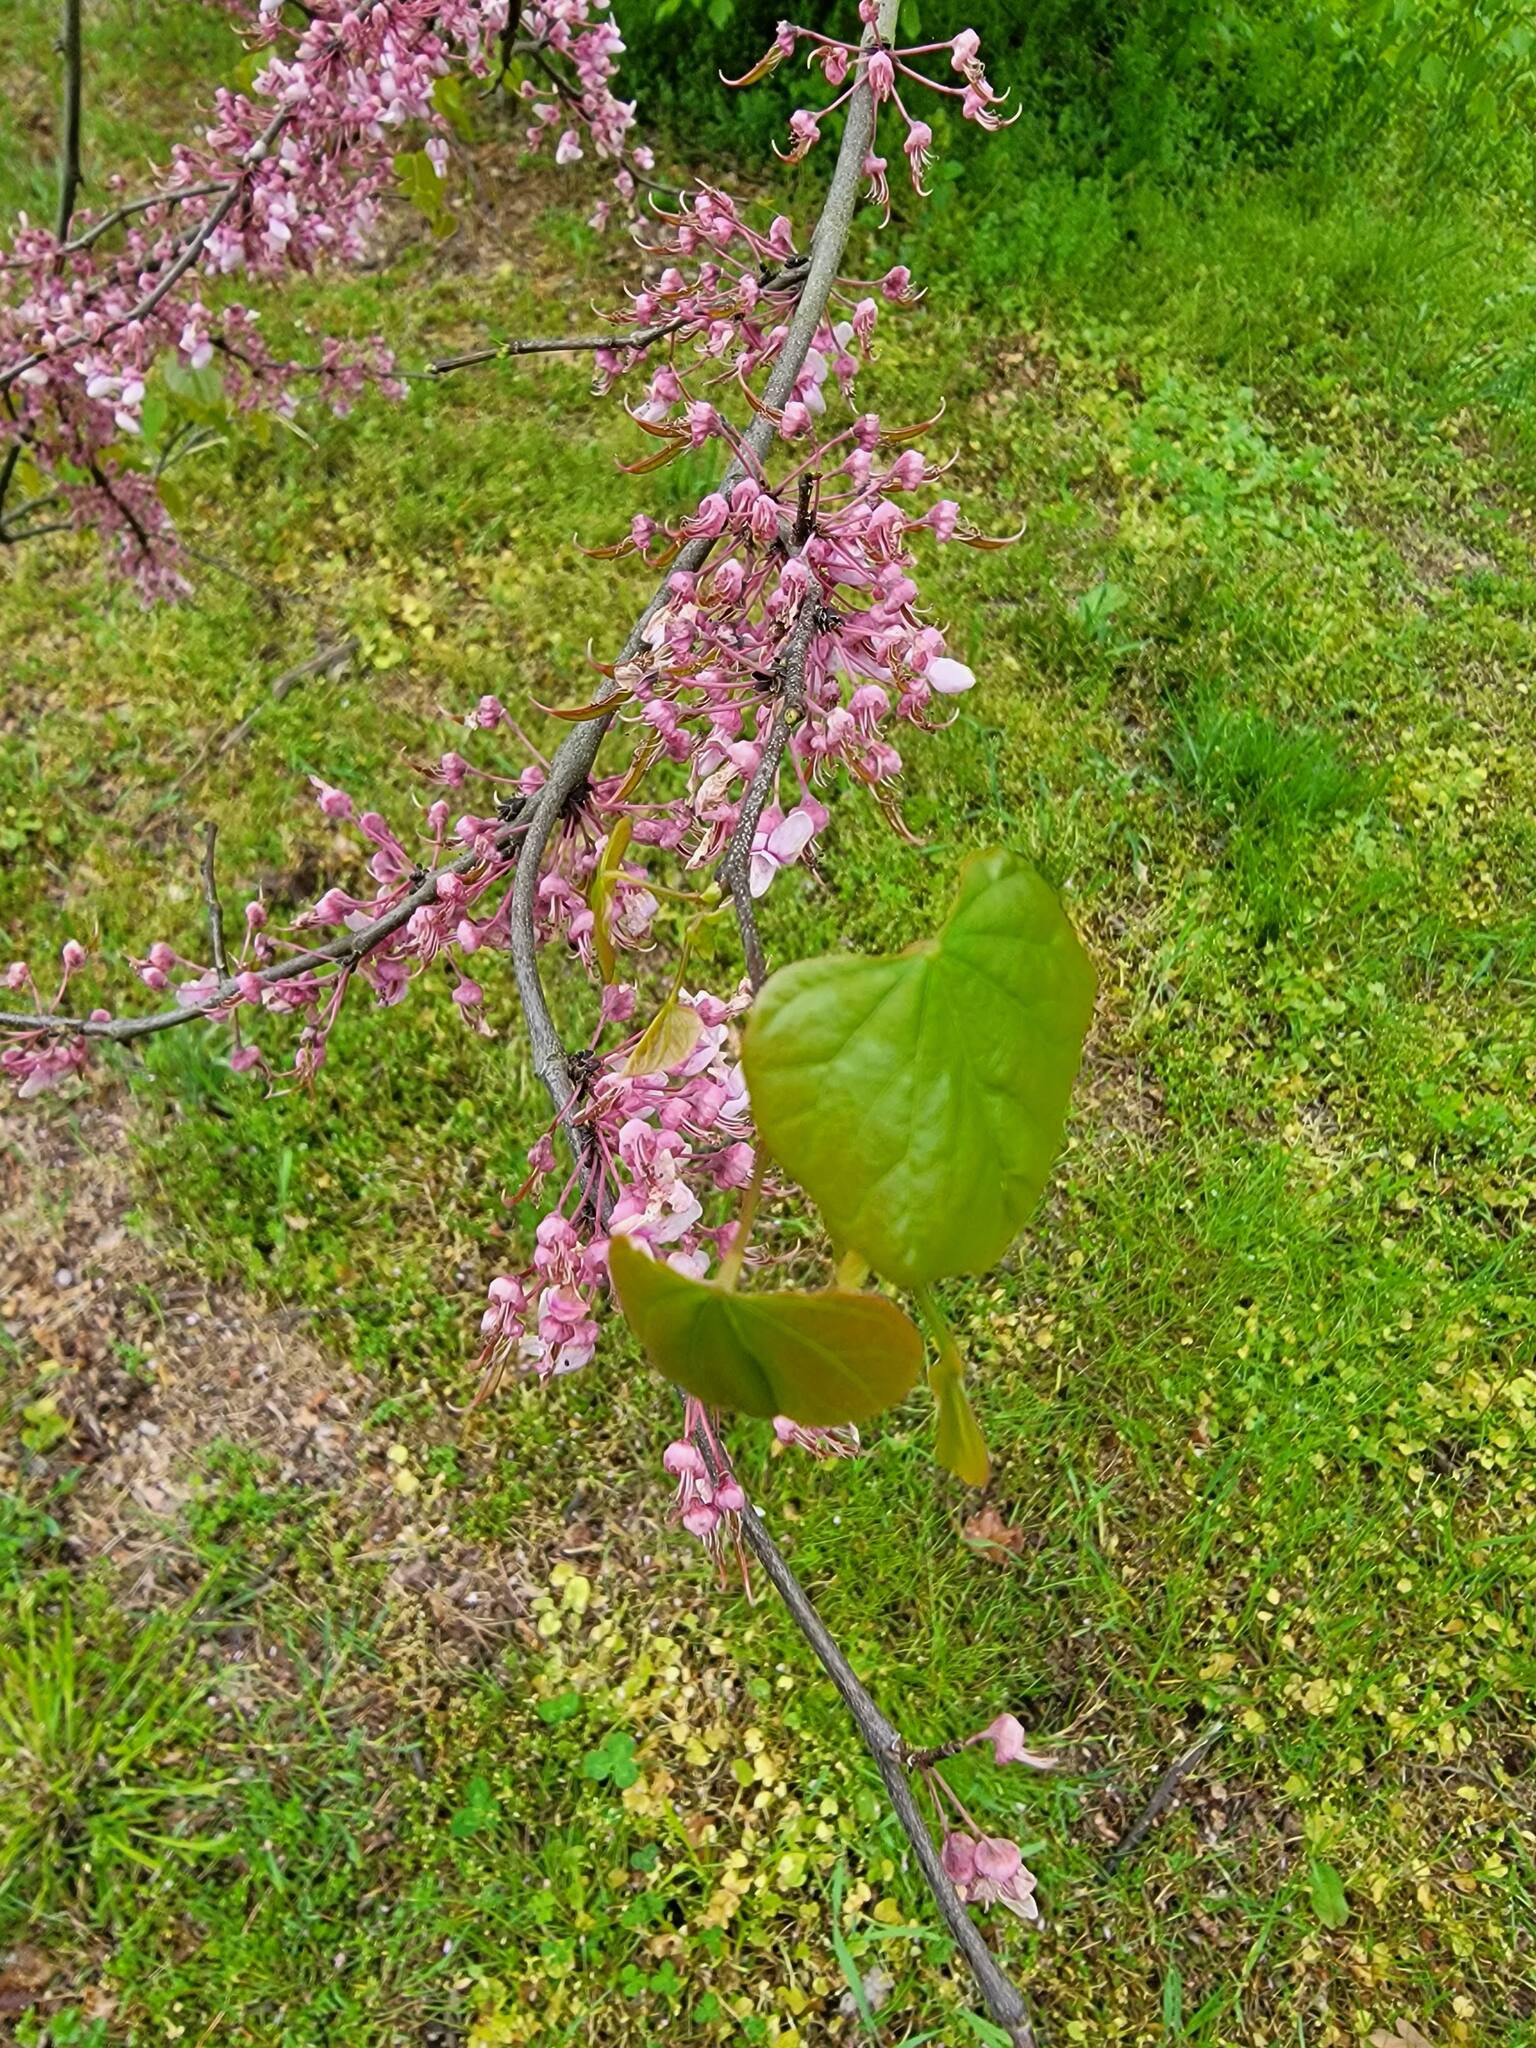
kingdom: Plantae
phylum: Tracheophyta
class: Magnoliopsida
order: Fabales
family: Fabaceae
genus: Cercis
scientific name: Cercis canadensis
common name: Eastern redbud
